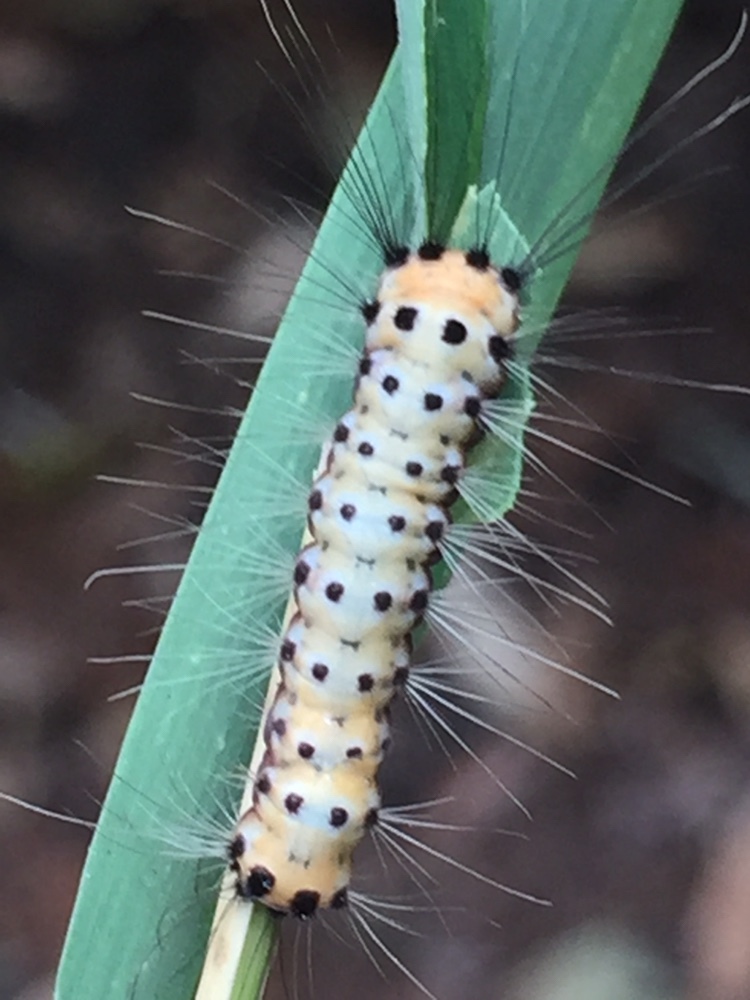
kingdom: Animalia
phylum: Arthropoda
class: Insecta
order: Lepidoptera
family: Zygaenidae
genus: Artona
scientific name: Artona martini
